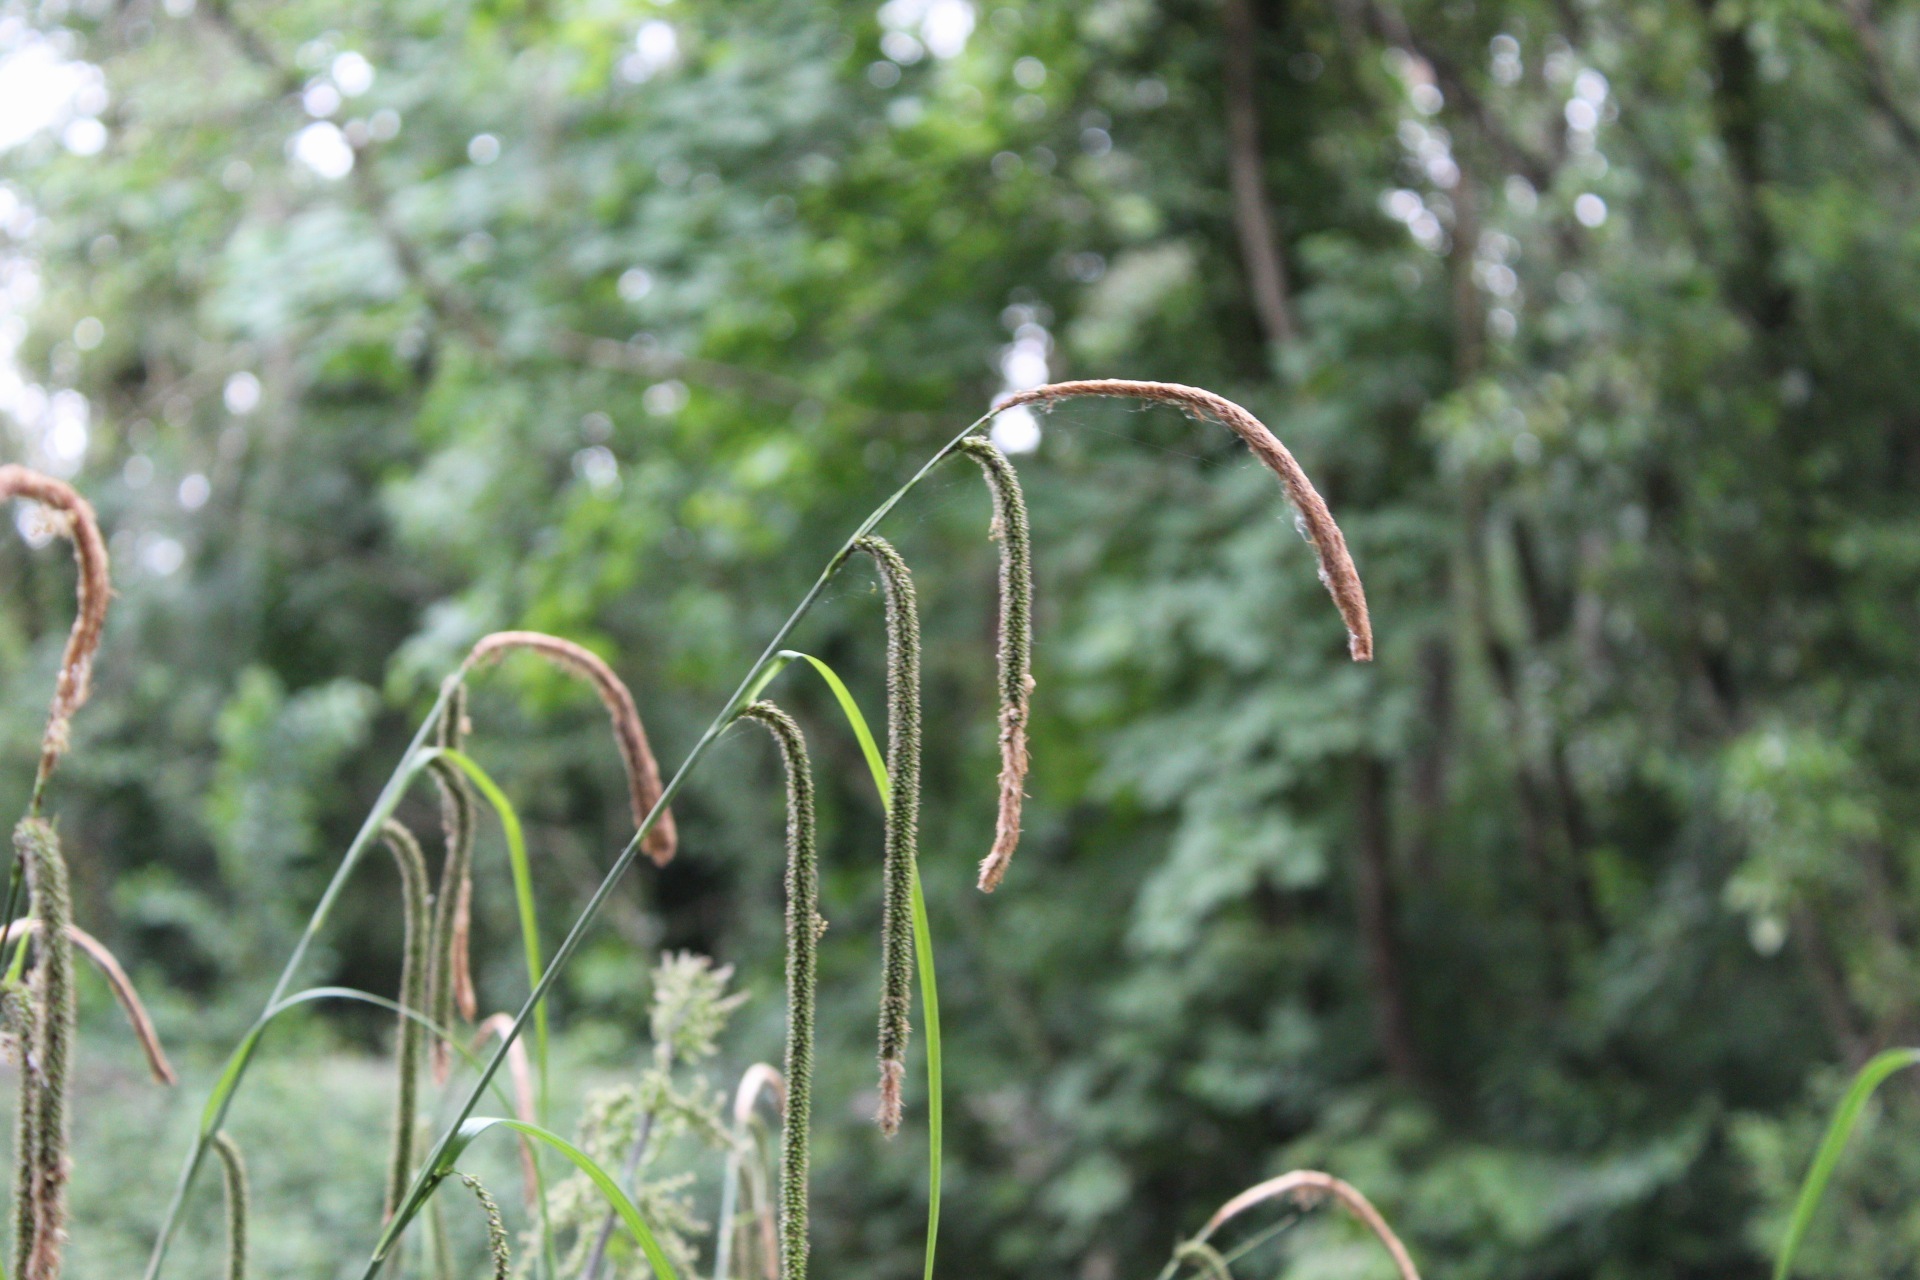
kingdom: Plantae
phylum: Tracheophyta
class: Liliopsida
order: Poales
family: Cyperaceae
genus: Carex
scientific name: Carex pendula
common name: Pendulous sedge
